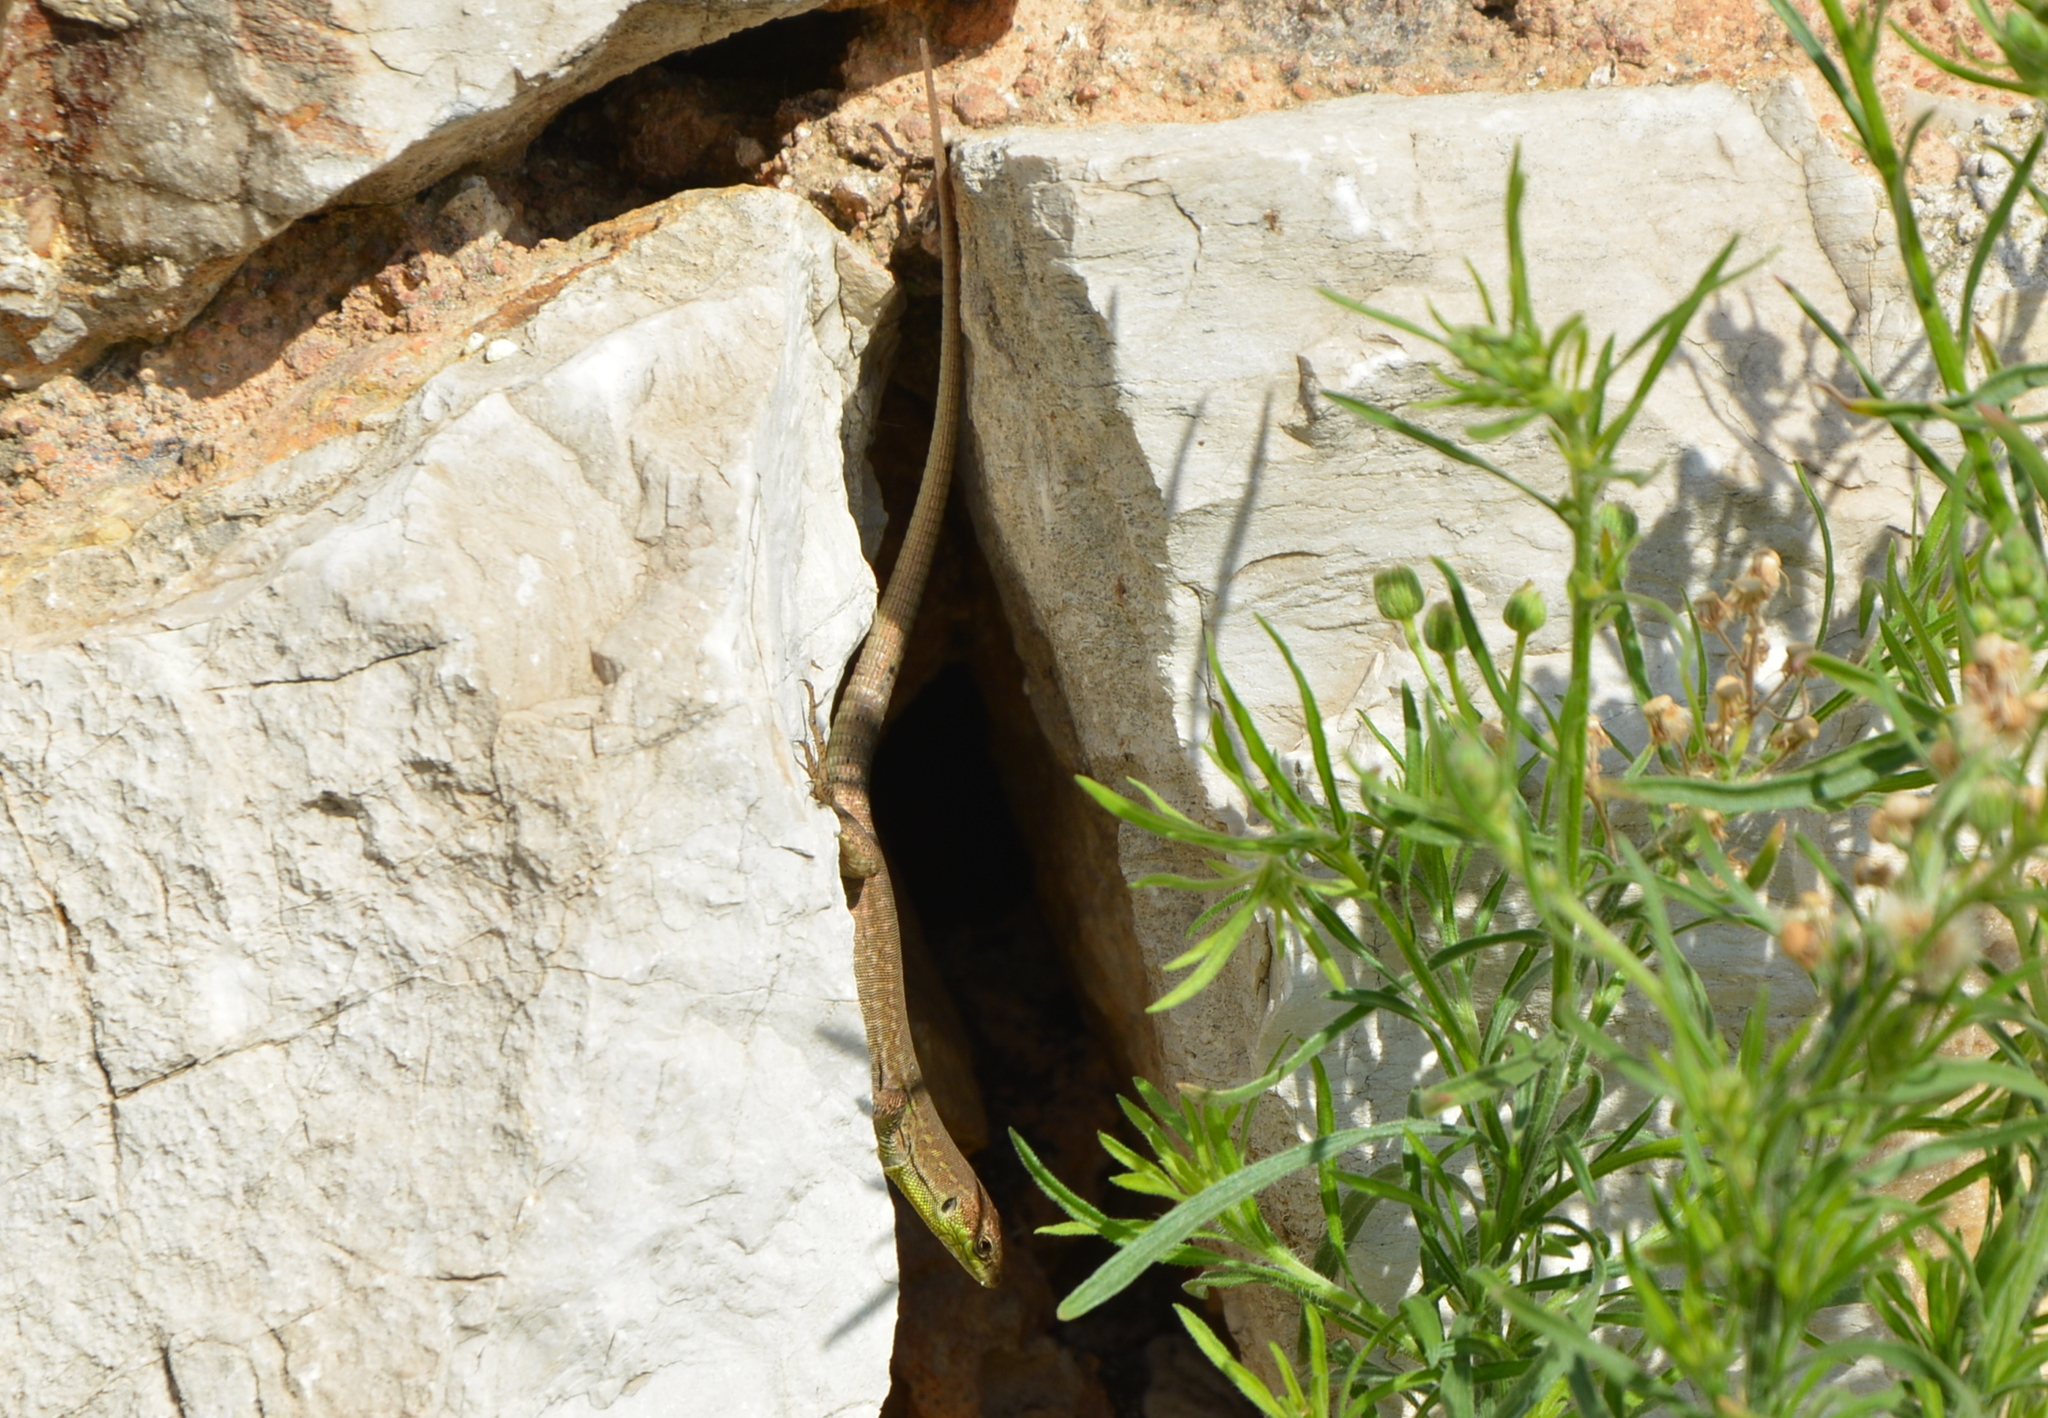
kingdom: Animalia
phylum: Chordata
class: Squamata
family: Lacertidae
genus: Podarcis
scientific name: Podarcis siculus
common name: Italian wall lizard
